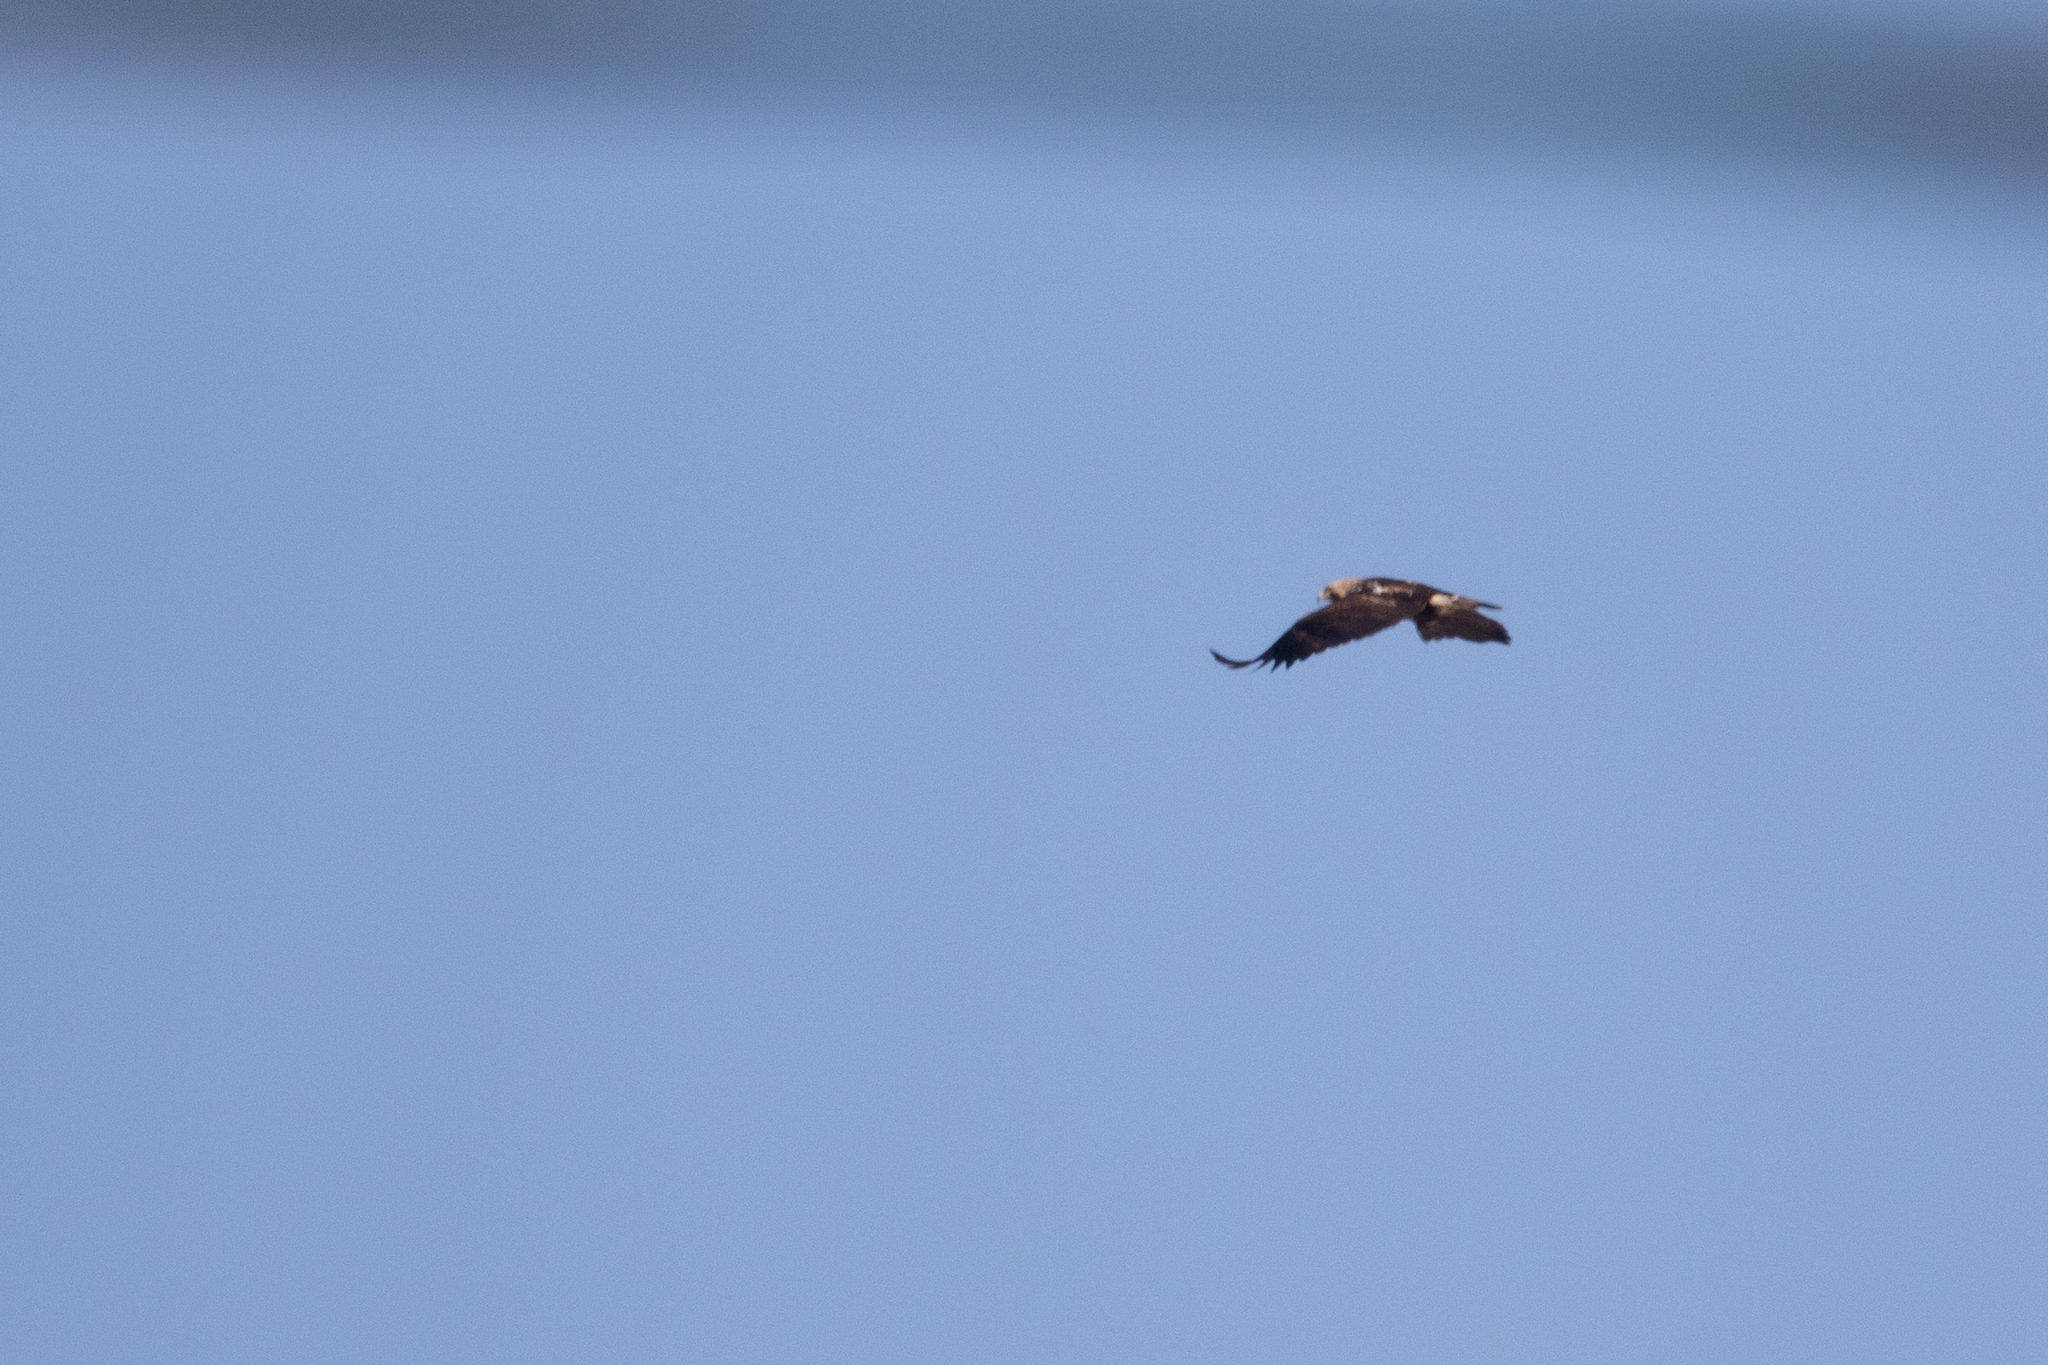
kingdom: Animalia
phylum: Chordata
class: Aves
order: Accipitriformes
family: Accipitridae
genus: Aquila
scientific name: Aquila heliaca
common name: Eastern imperial eagle
